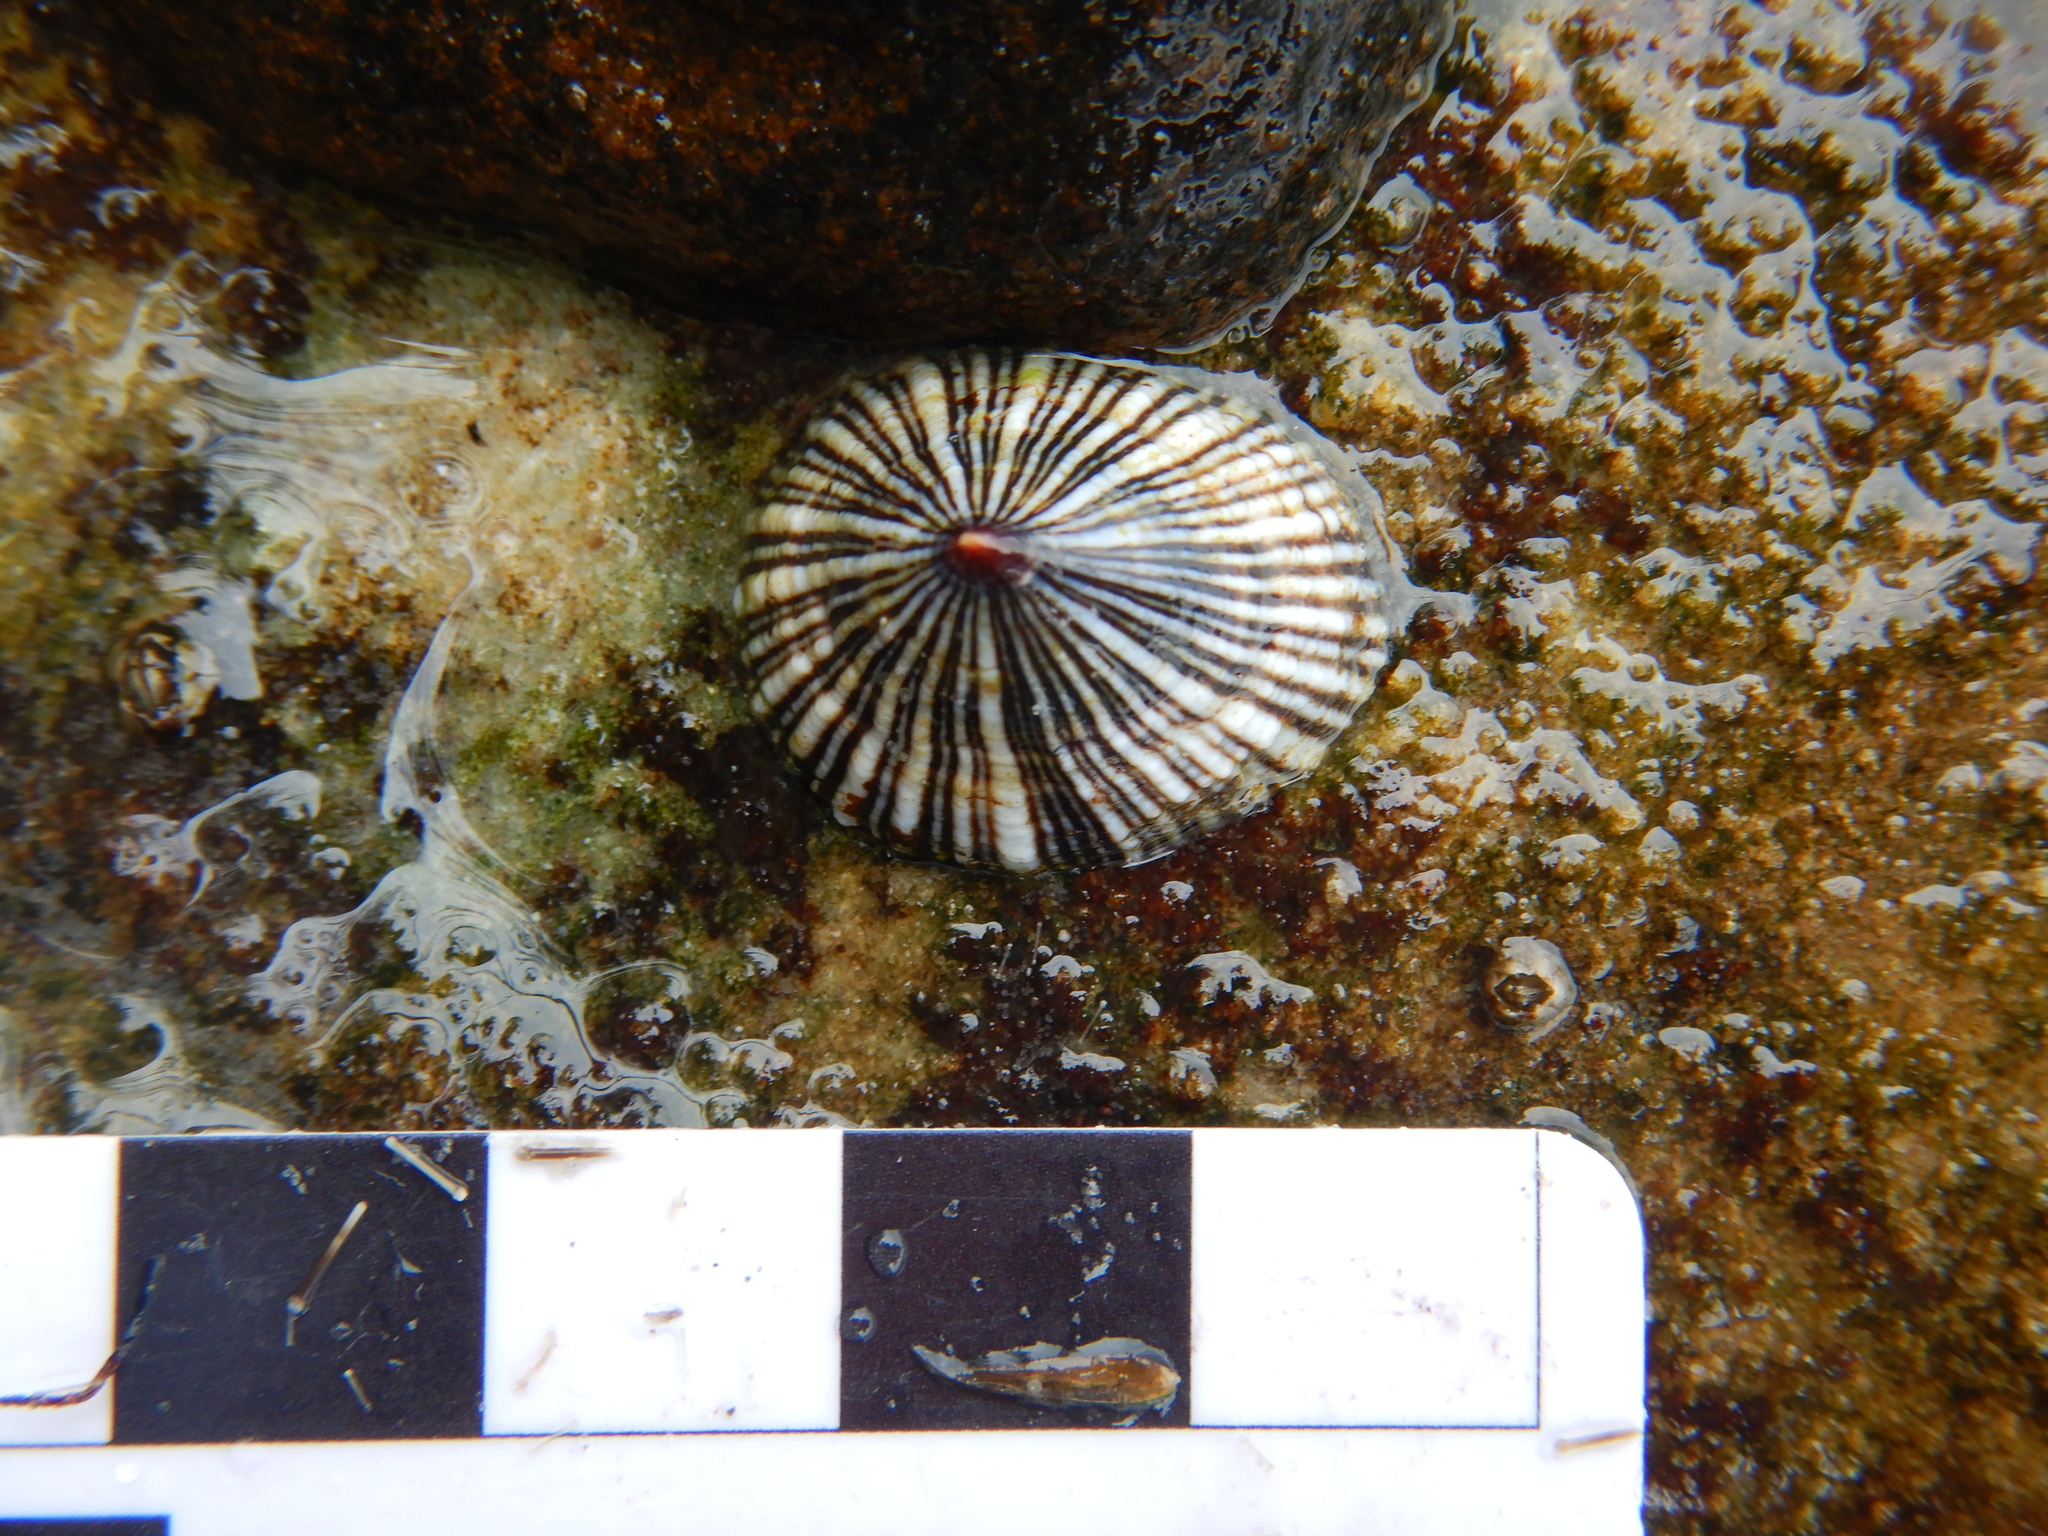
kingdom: Animalia
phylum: Mollusca
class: Gastropoda
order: Siphonariida
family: Siphonariidae
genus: Siphonaria
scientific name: Siphonaria funiculata
